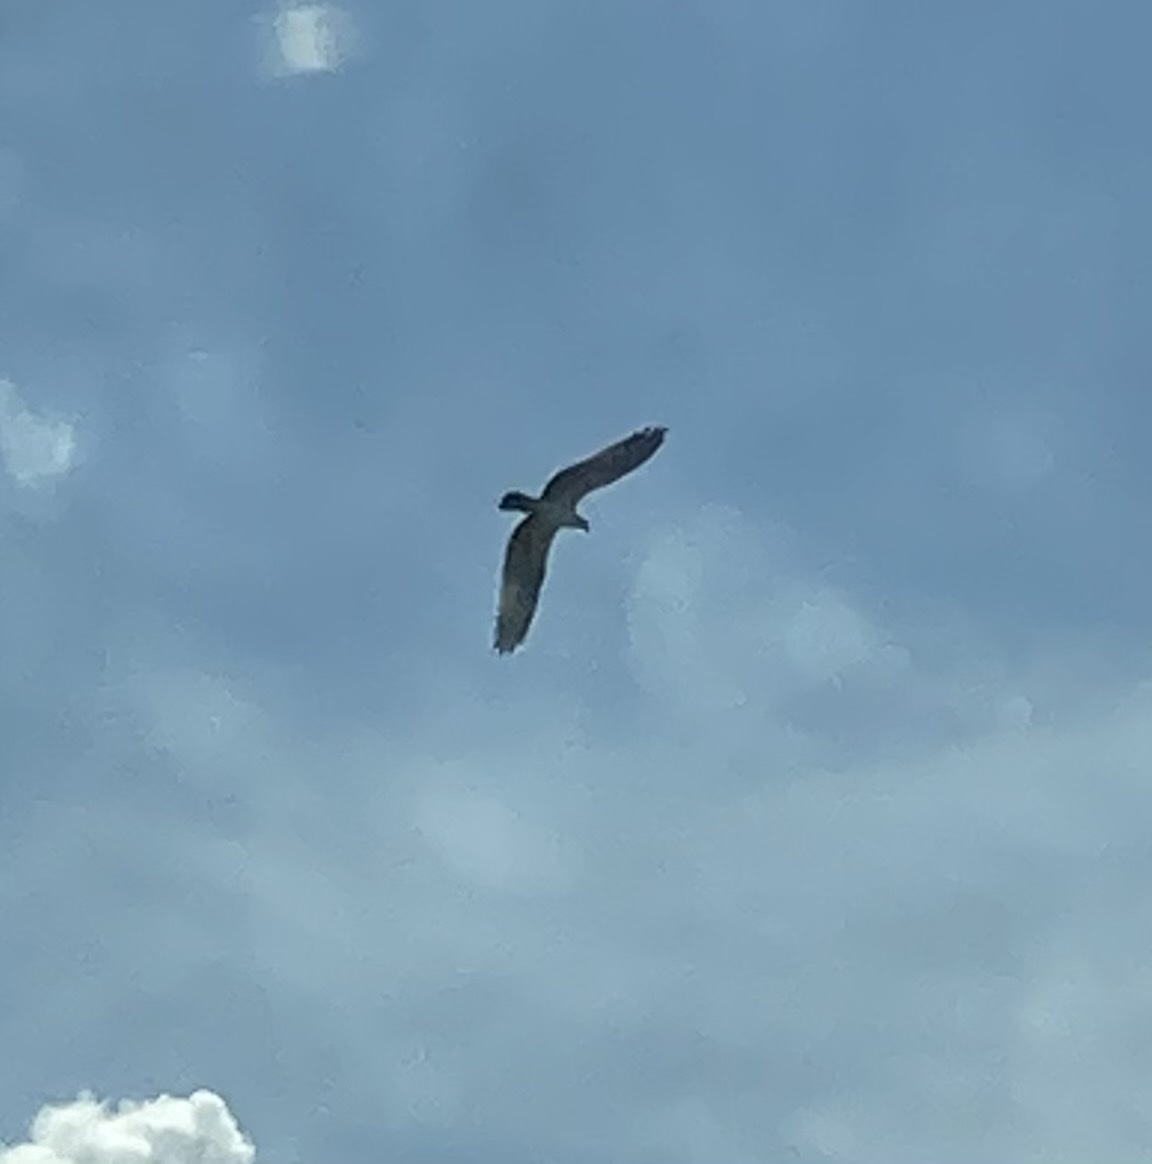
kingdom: Animalia
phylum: Chordata
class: Aves
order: Accipitriformes
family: Pandionidae
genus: Pandion
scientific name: Pandion haliaetus
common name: Osprey
